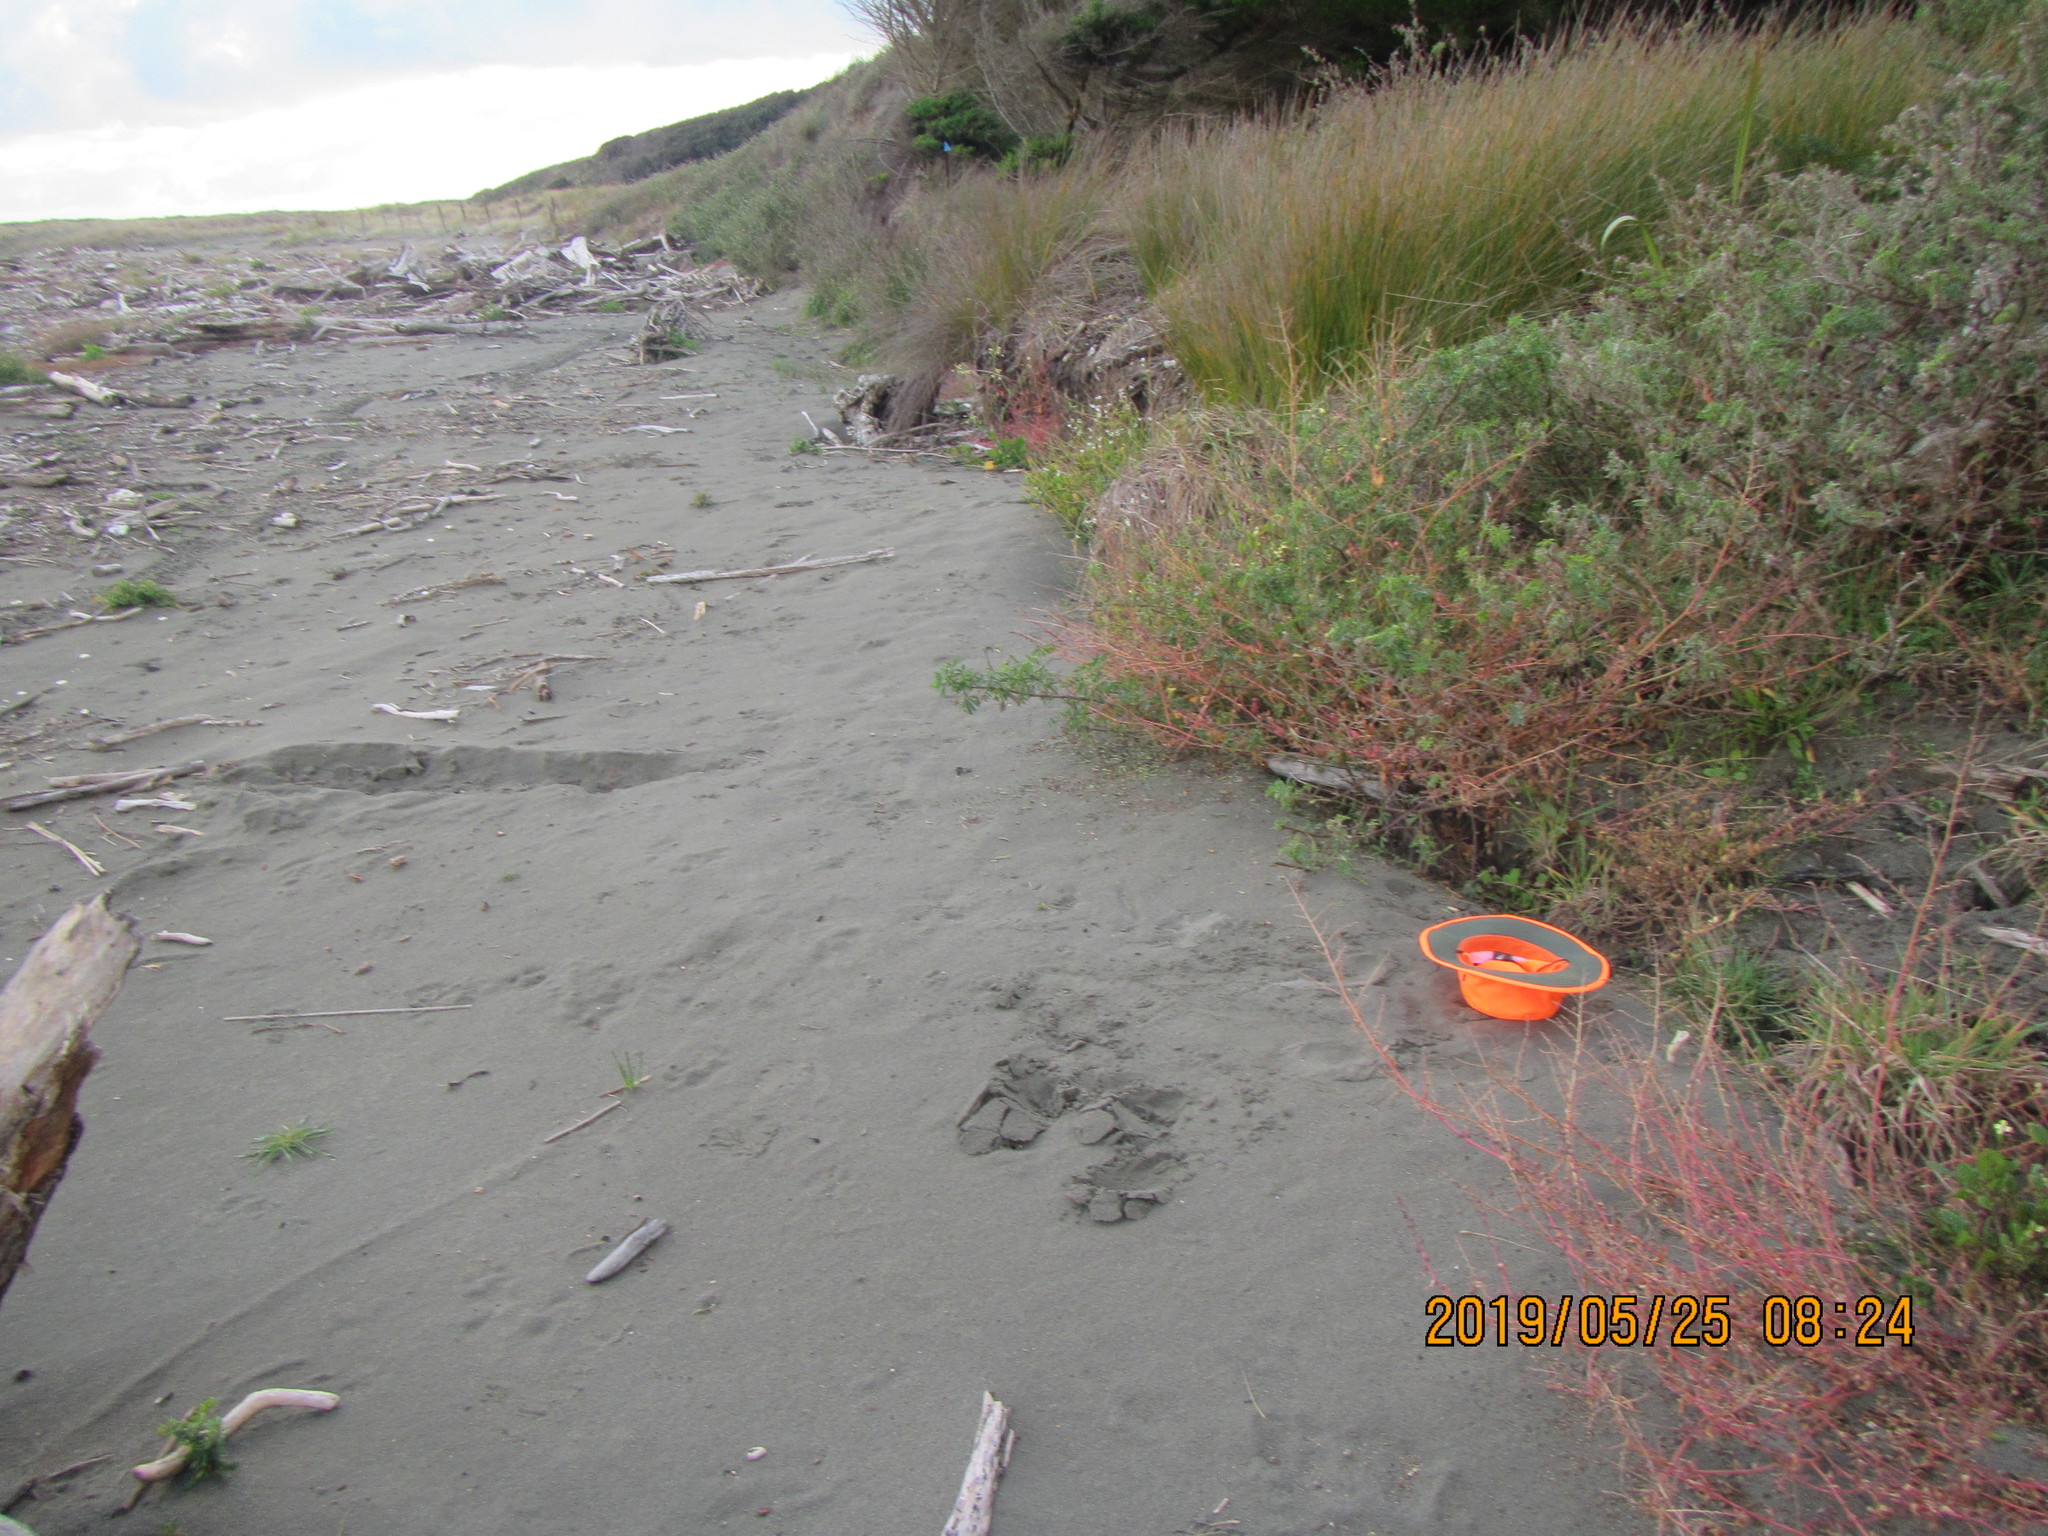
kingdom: Plantae
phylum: Tracheophyta
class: Magnoliopsida
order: Lamiales
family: Plantaginaceae
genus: Plantago
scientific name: Plantago coronopus
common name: Buck's-horn plantain
